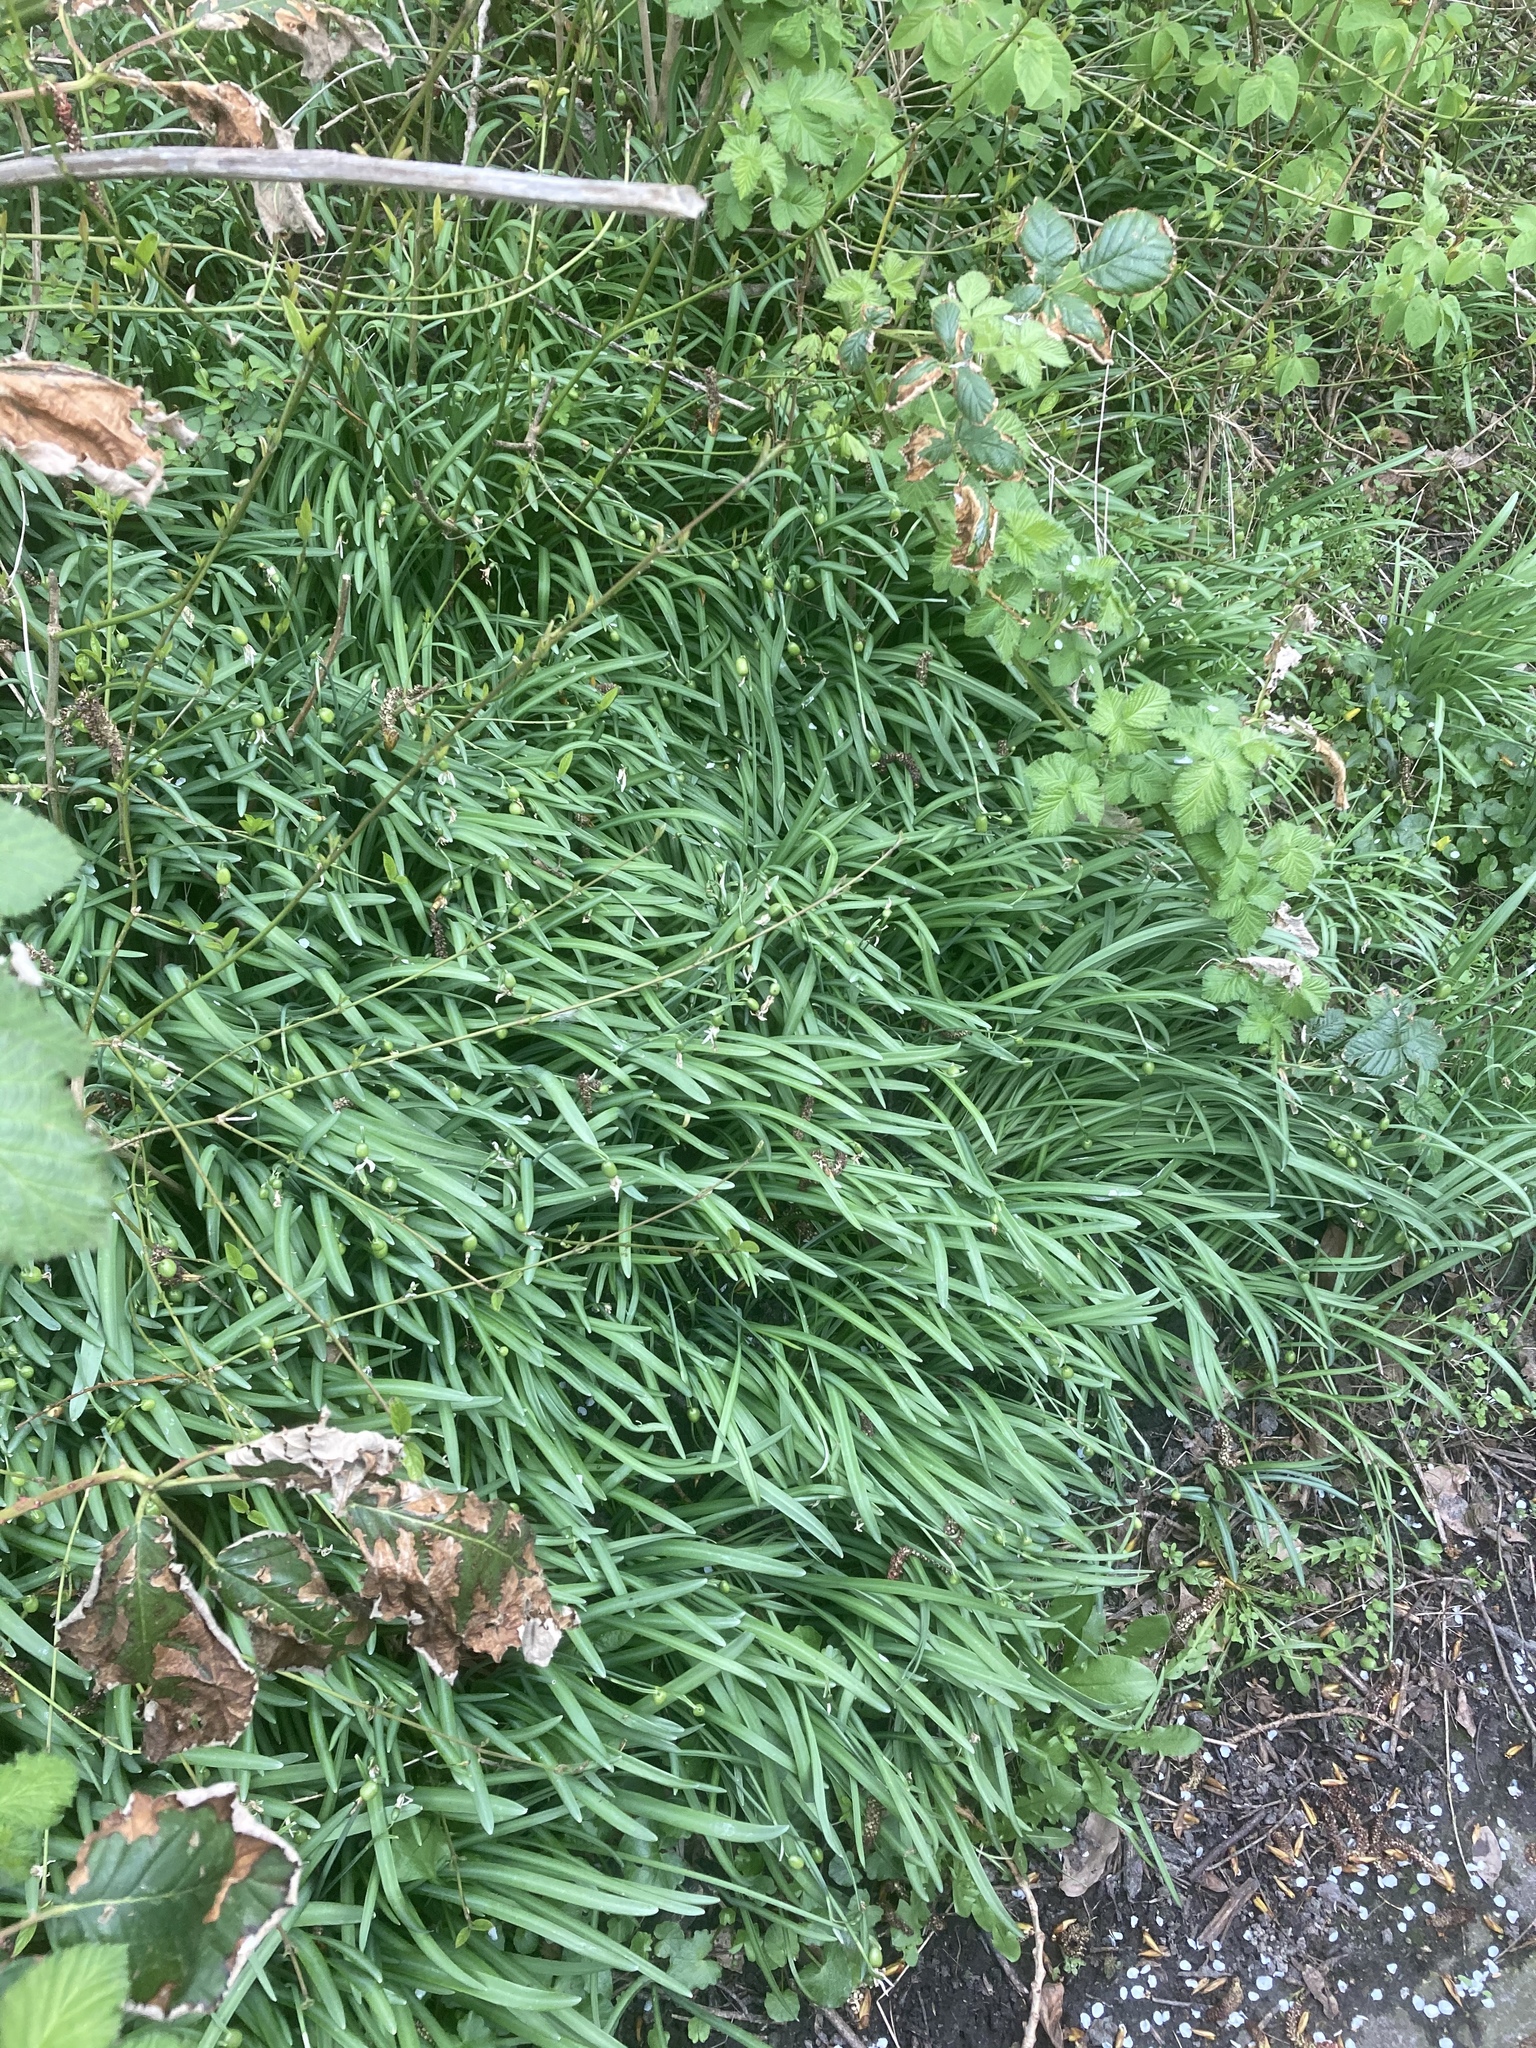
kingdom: Plantae
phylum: Tracheophyta
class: Liliopsida
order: Asparagales
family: Amaryllidaceae
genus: Galanthus
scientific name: Galanthus nivalis
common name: Snowdrop
